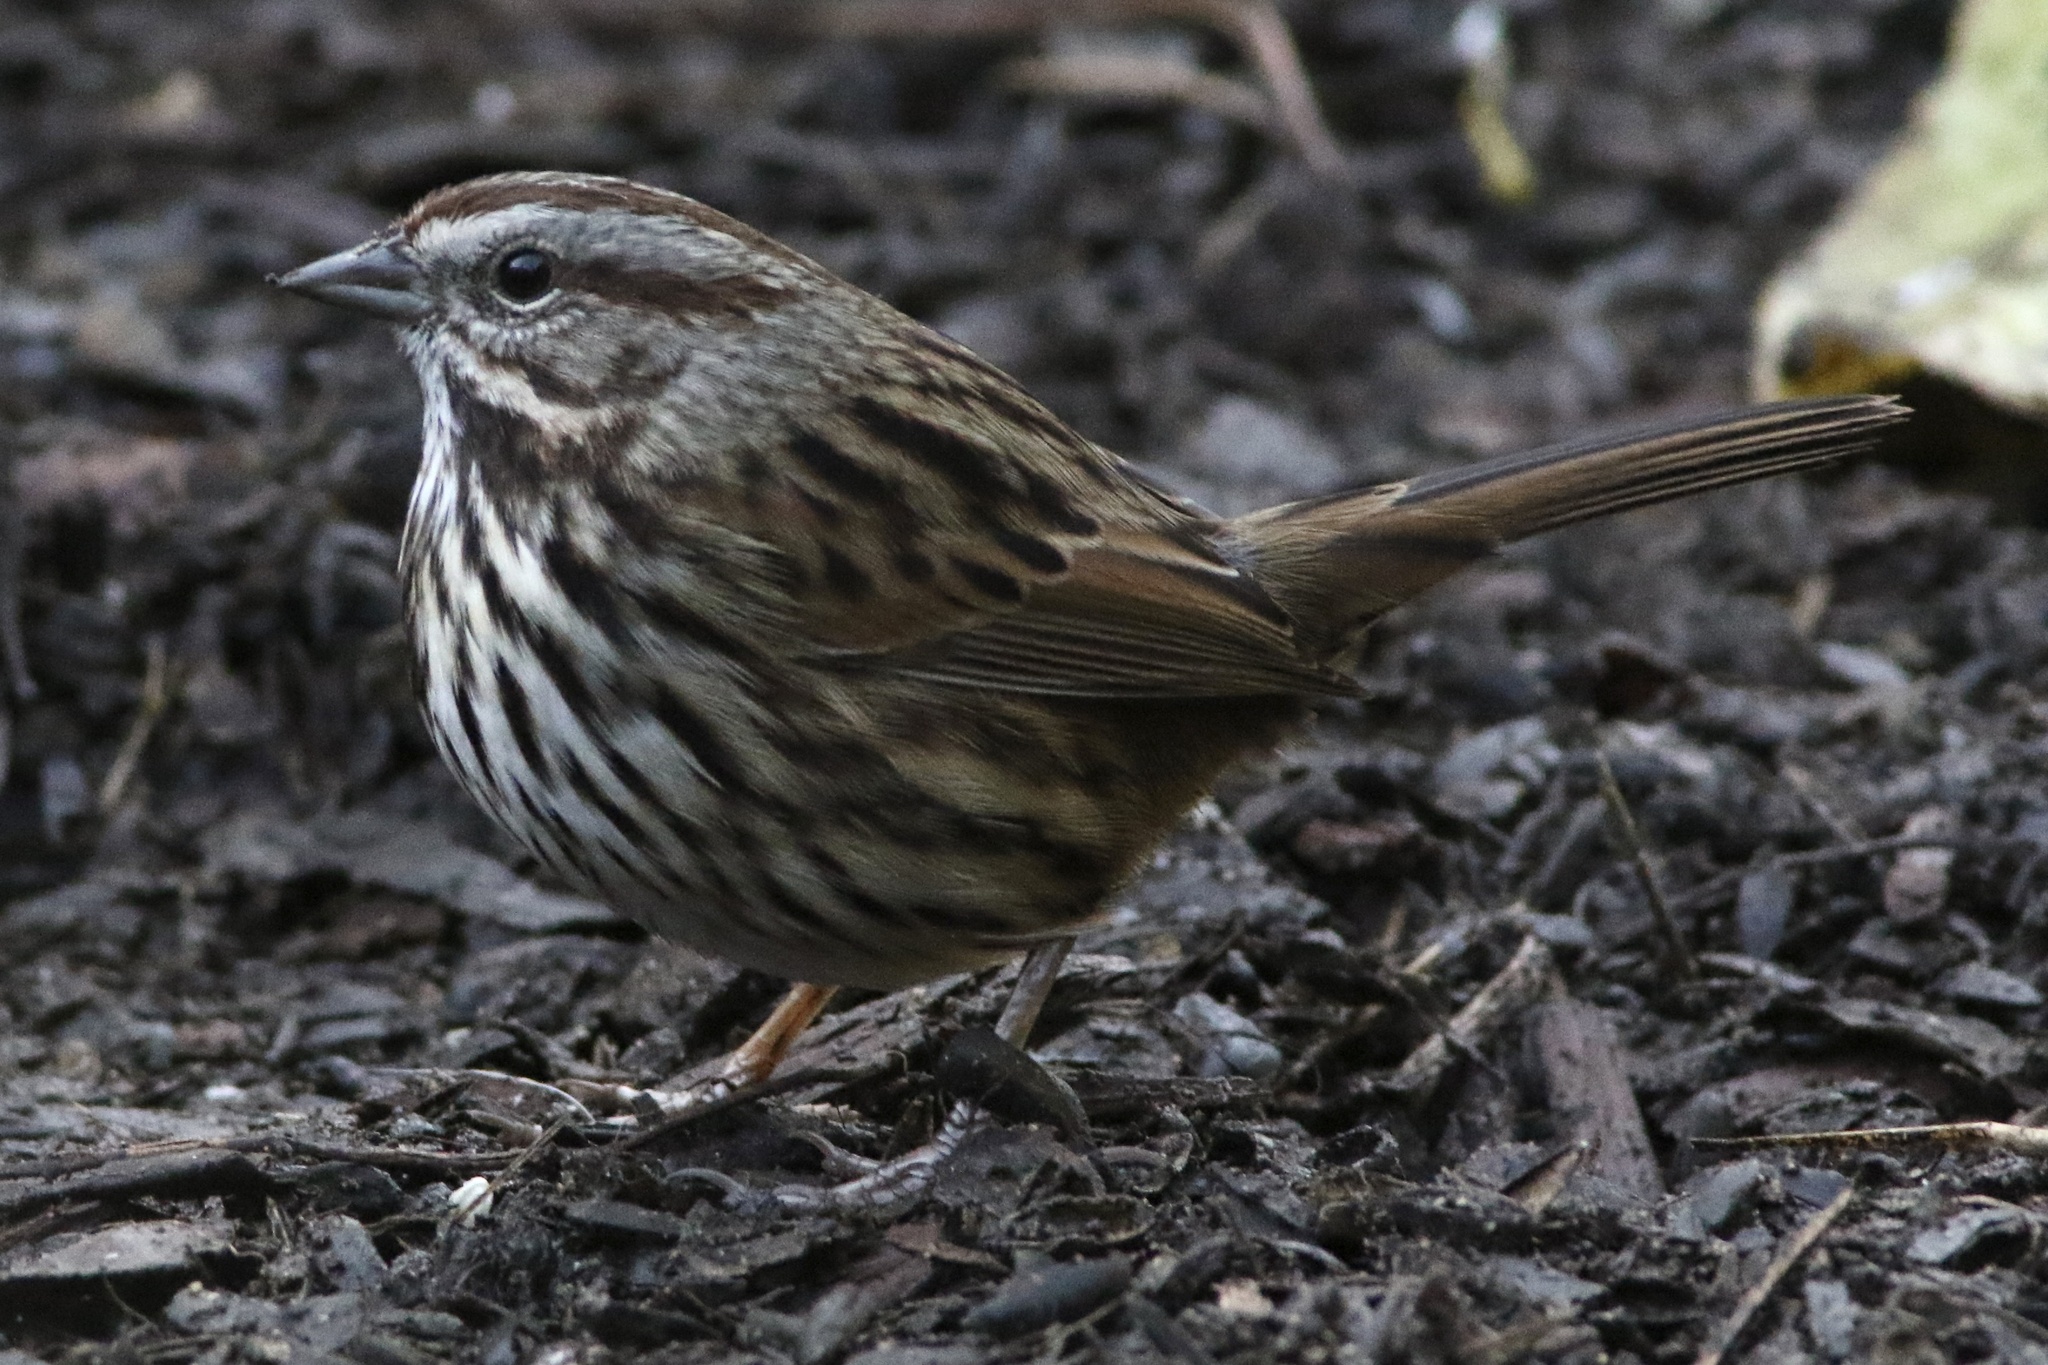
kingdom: Animalia
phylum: Chordata
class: Aves
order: Passeriformes
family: Passerellidae
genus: Melospiza
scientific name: Melospiza melodia
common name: Song sparrow
